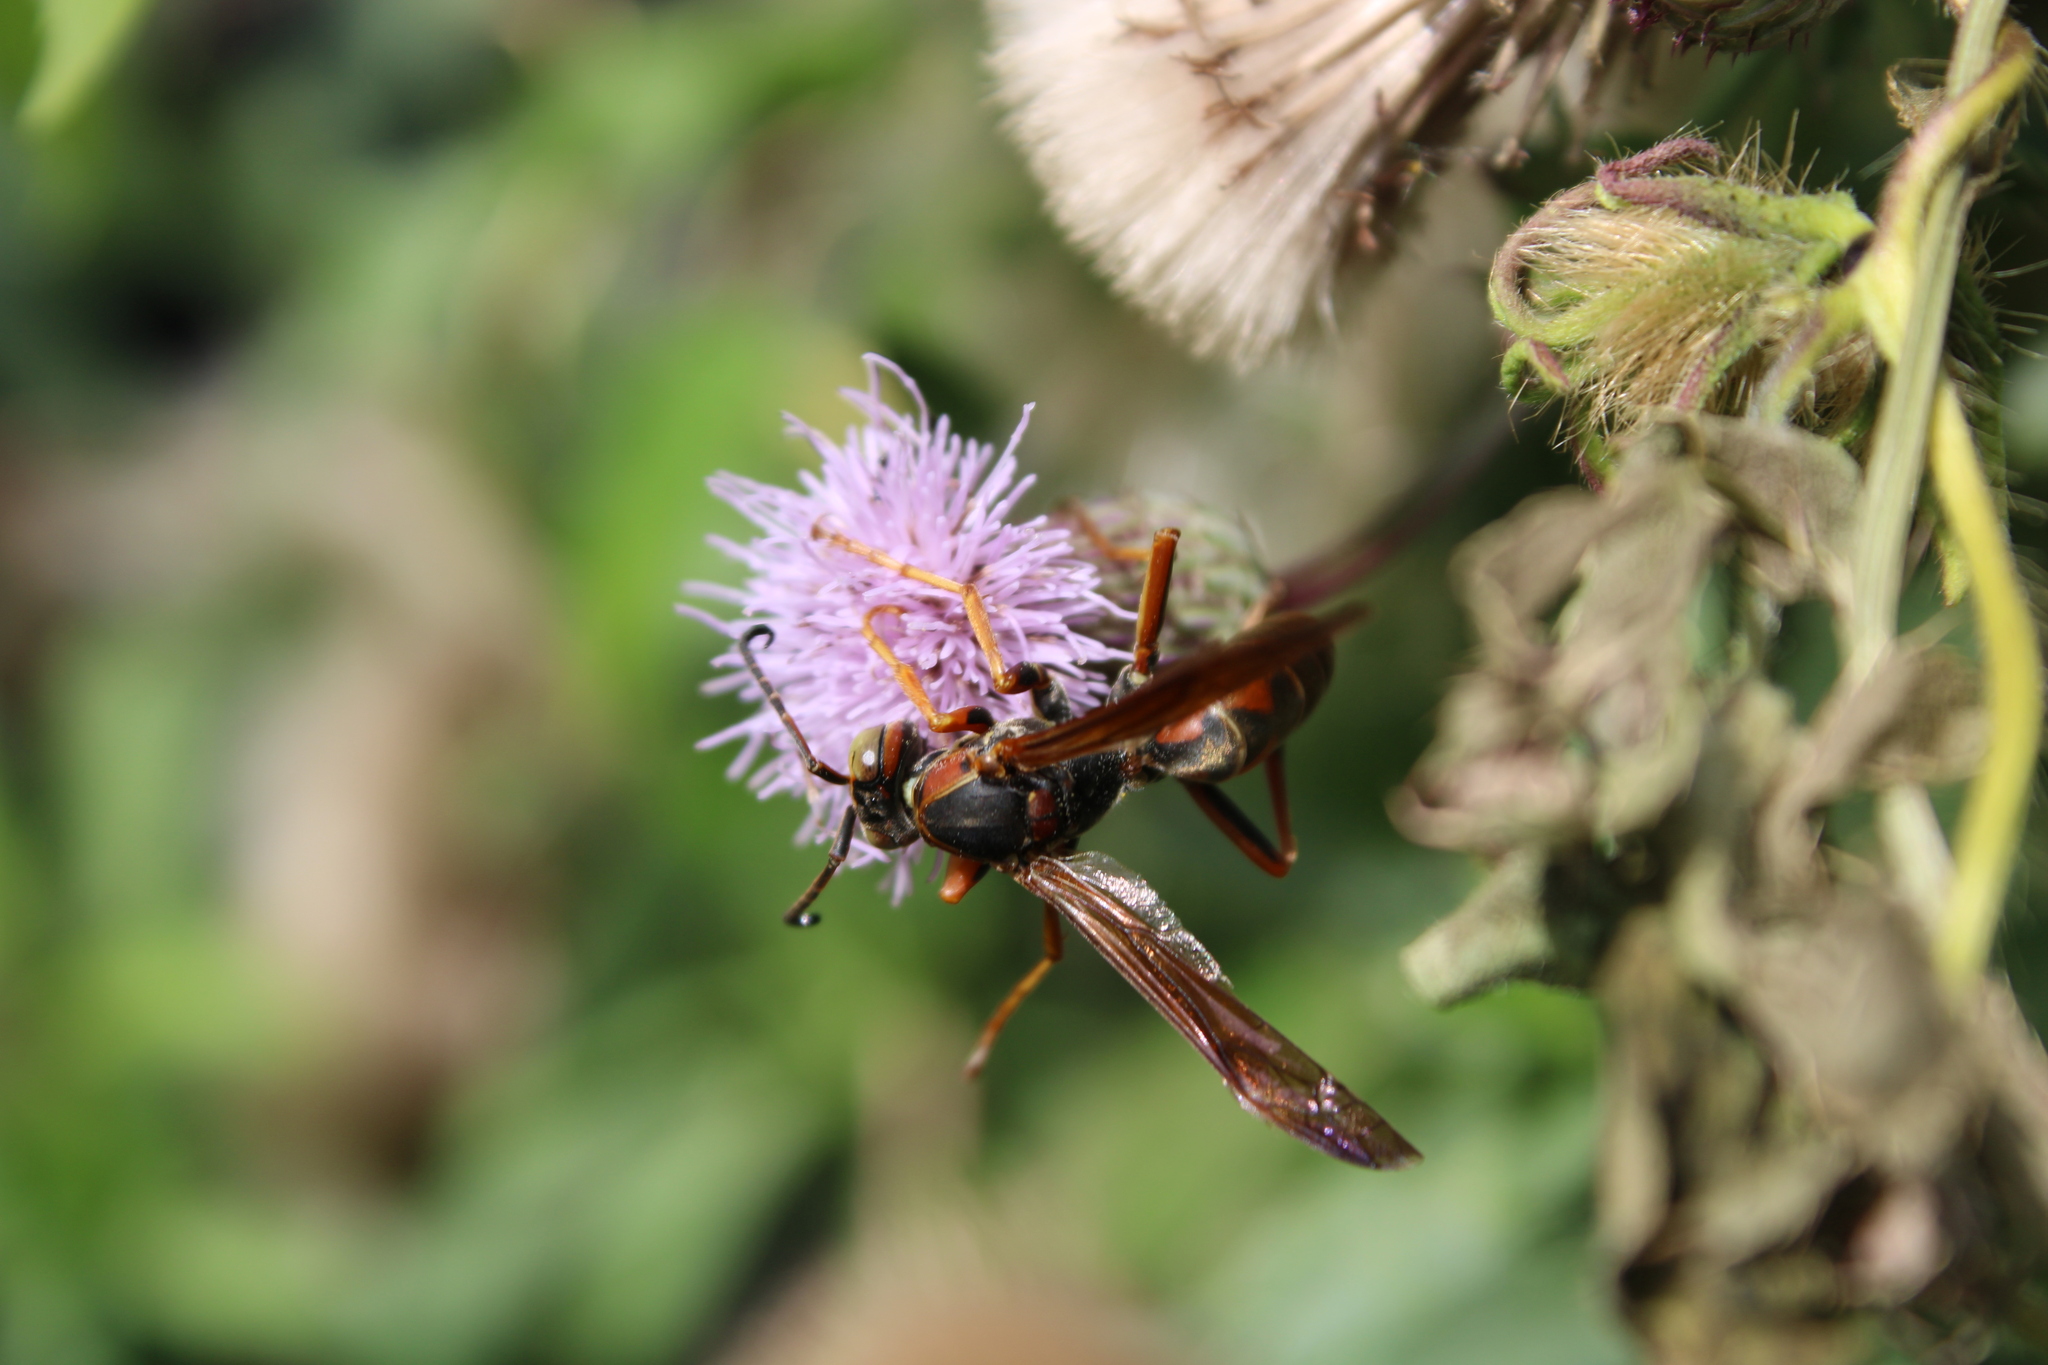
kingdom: Animalia
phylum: Arthropoda
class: Insecta
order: Hymenoptera
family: Eumenidae
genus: Polistes
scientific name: Polistes fuscatus
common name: Dark paper wasp
